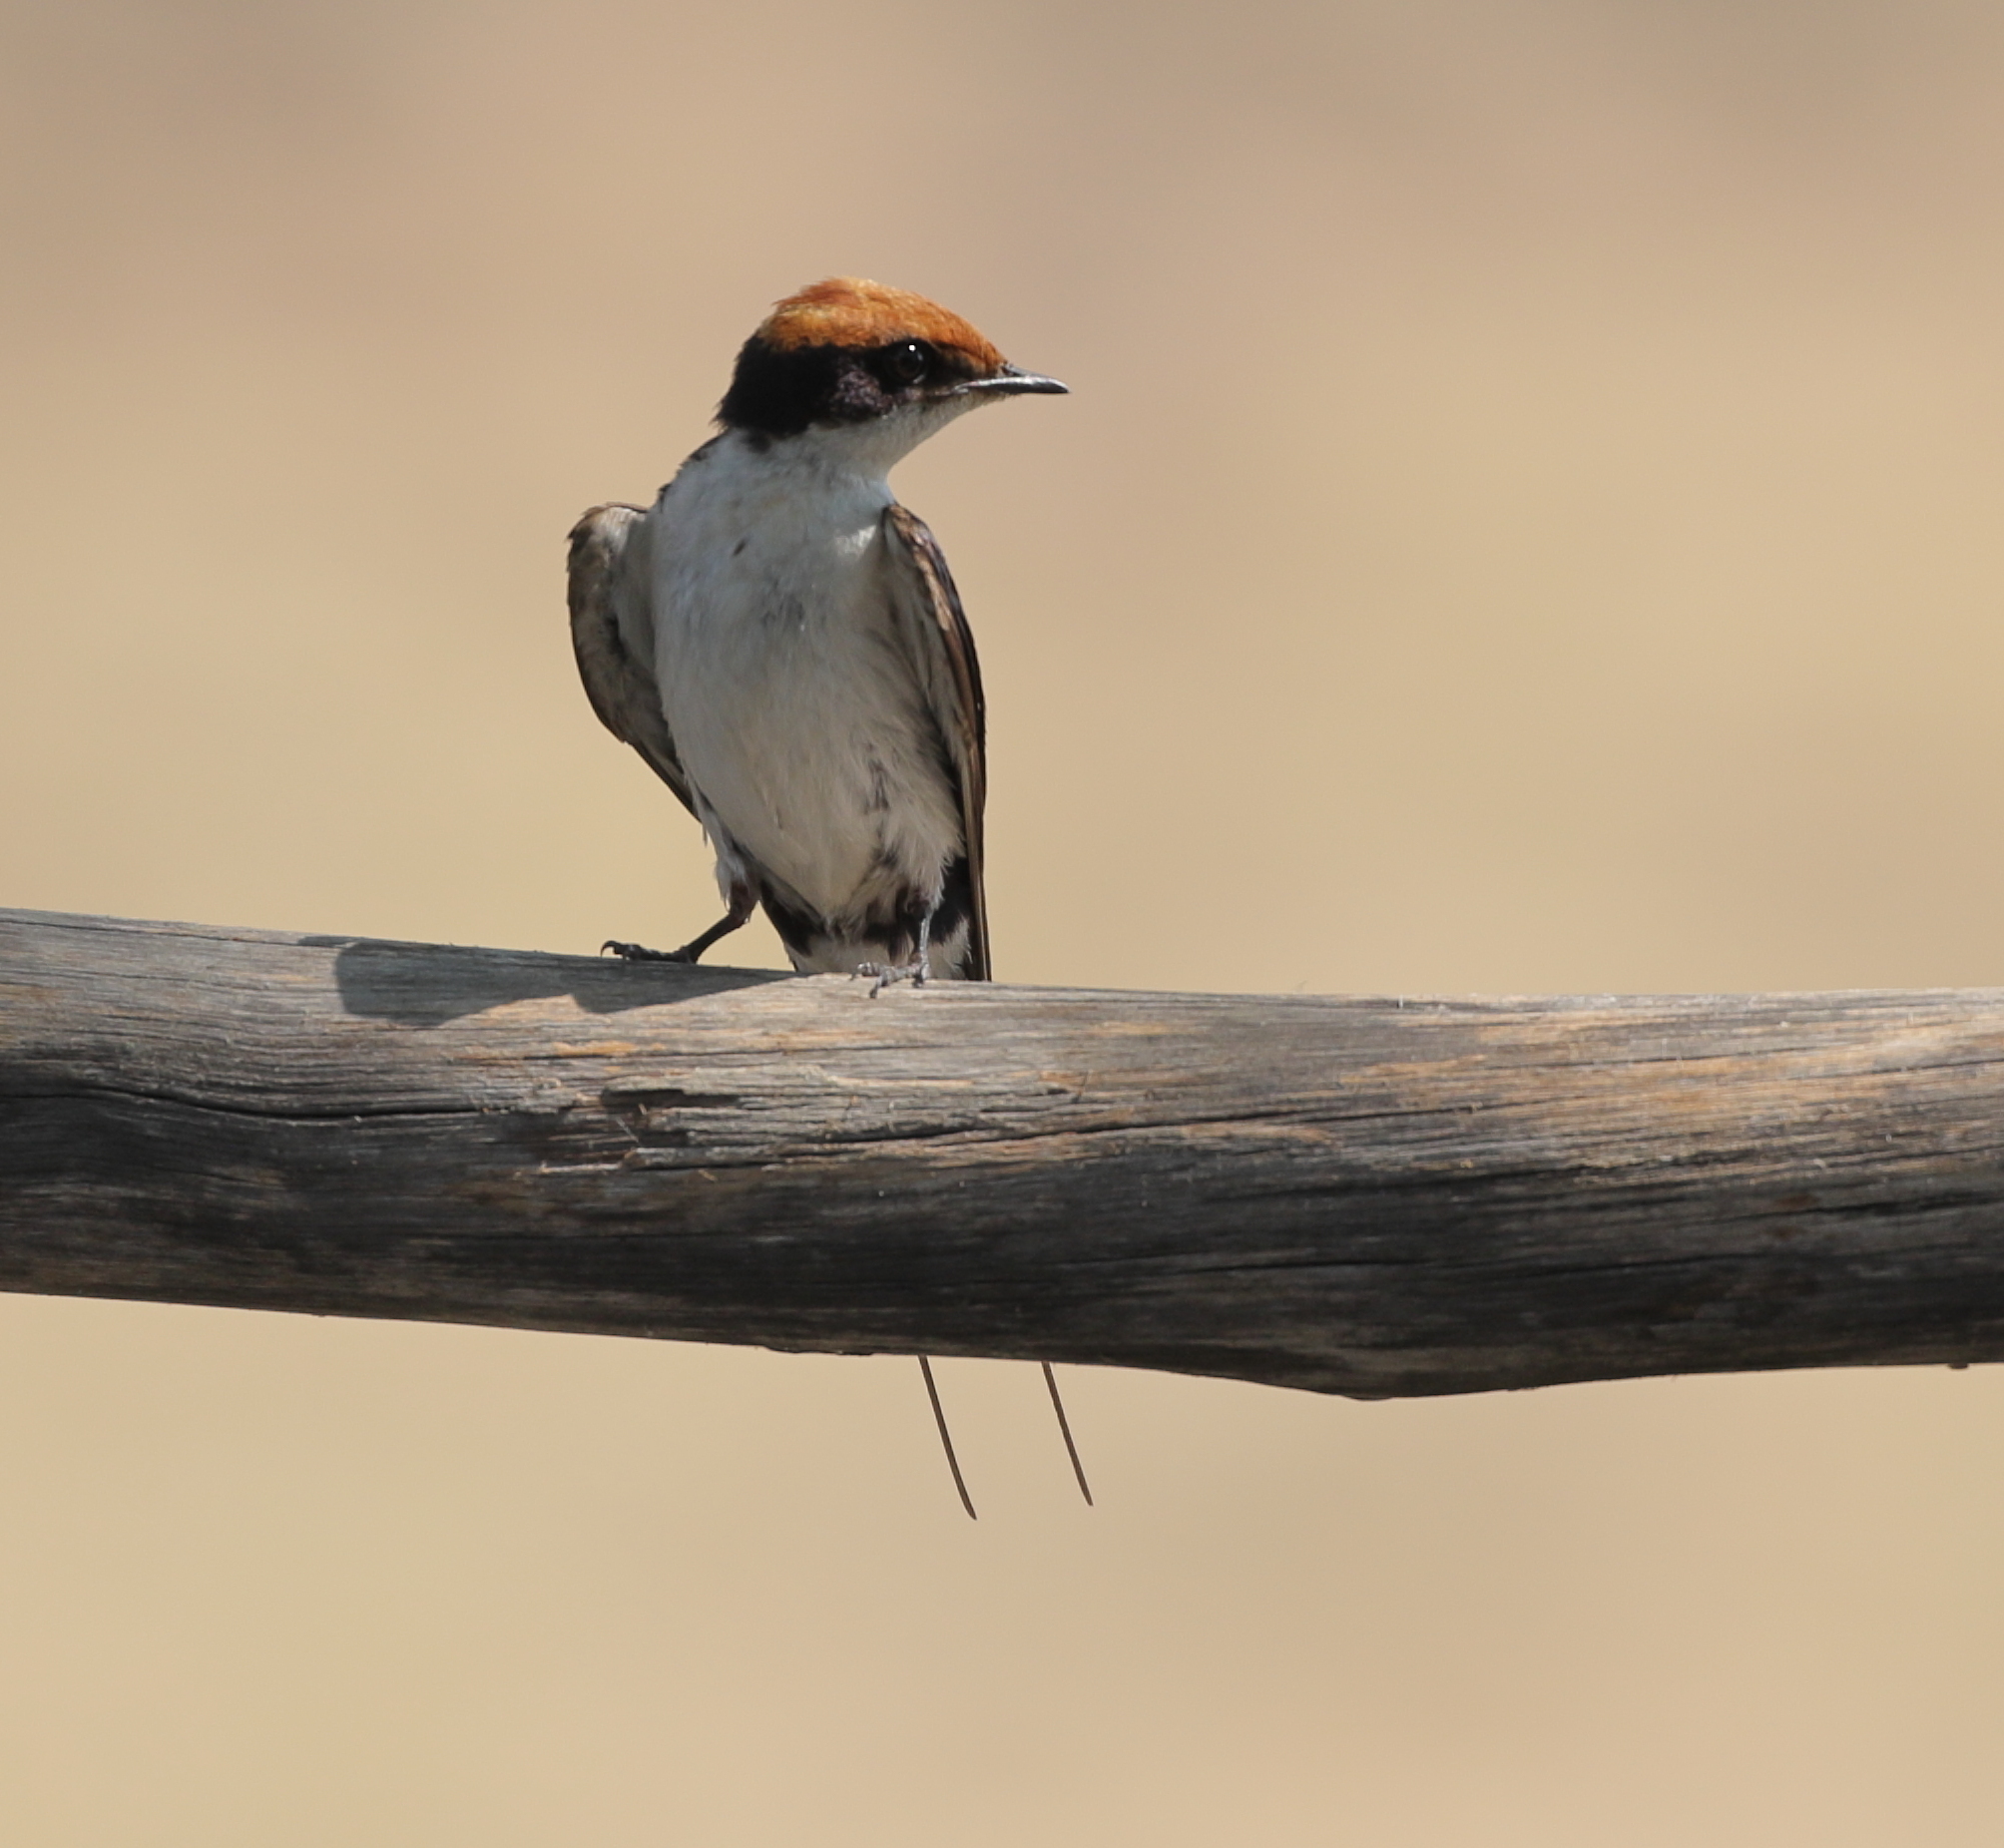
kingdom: Animalia
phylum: Chordata
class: Aves
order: Passeriformes
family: Hirundinidae
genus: Hirundo
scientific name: Hirundo smithii
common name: Wire-tailed swallow
